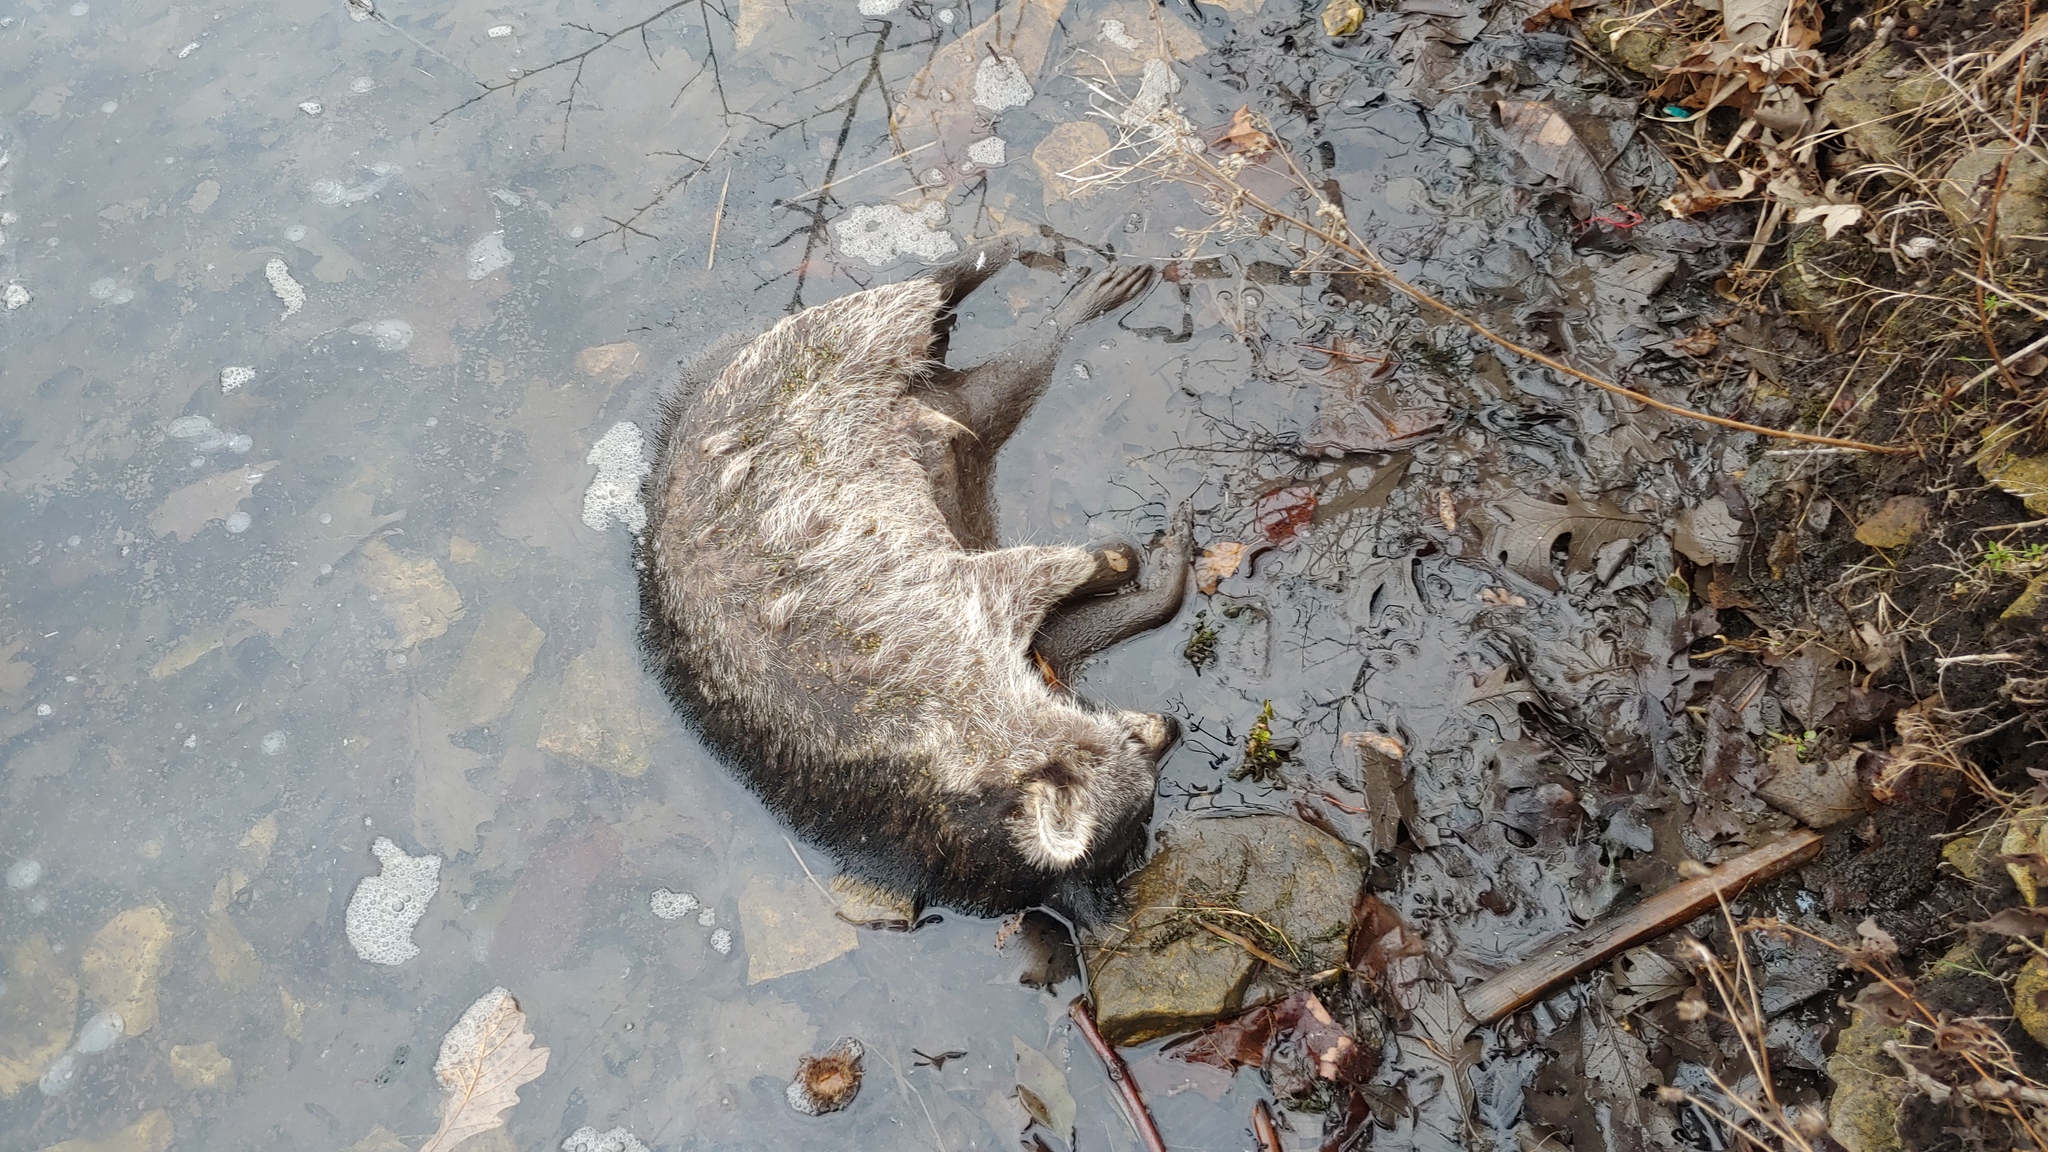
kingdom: Animalia
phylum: Chordata
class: Mammalia
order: Carnivora
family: Procyonidae
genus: Procyon
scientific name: Procyon lotor
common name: Raccoon
